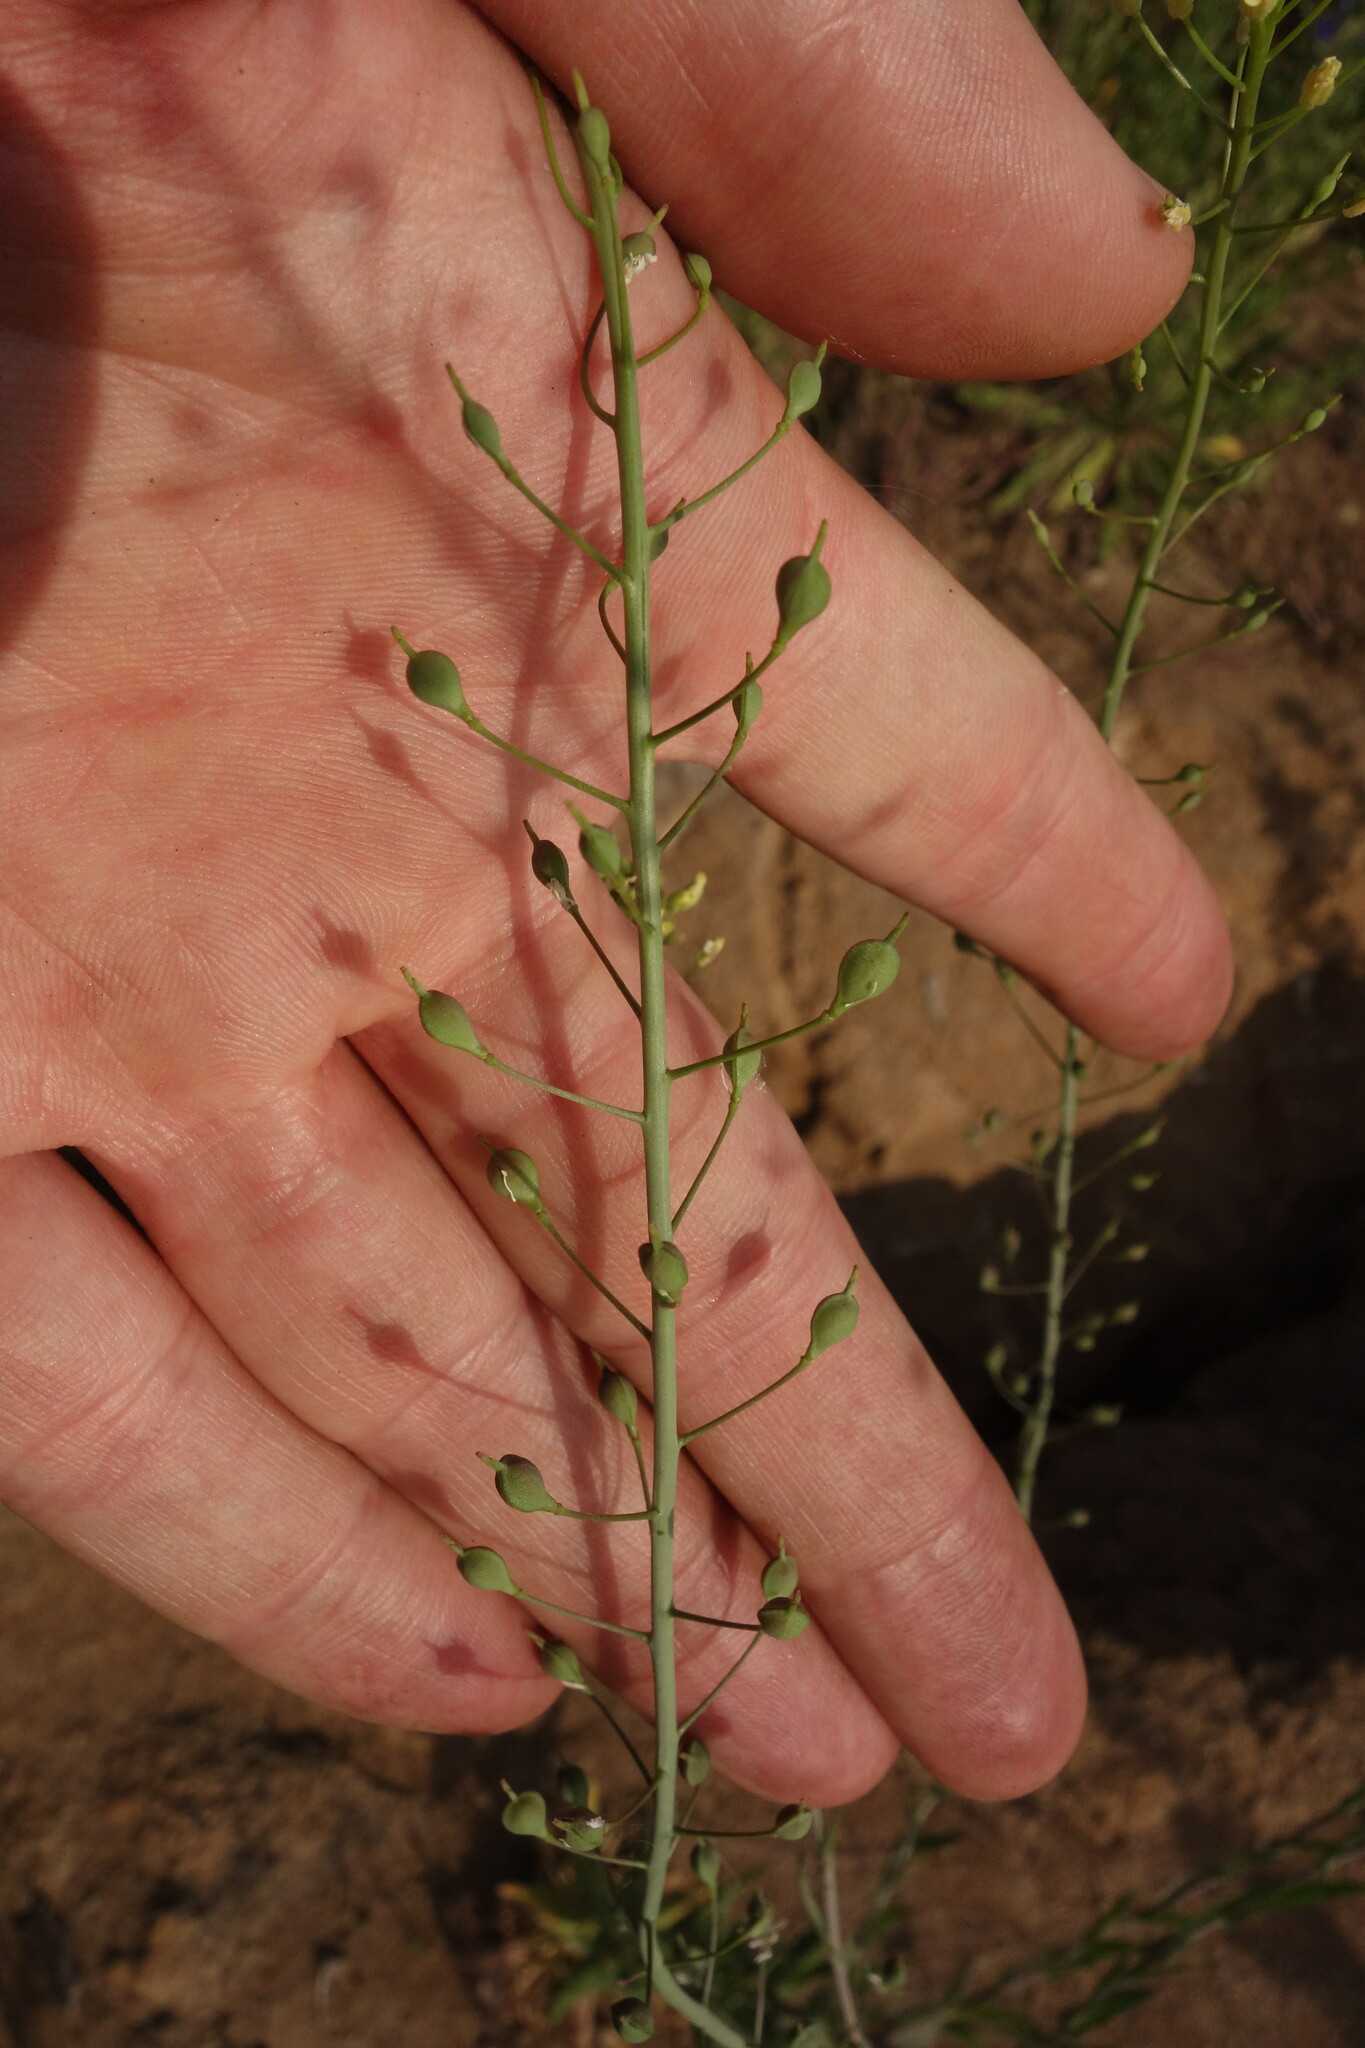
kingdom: Plantae
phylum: Tracheophyta
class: Magnoliopsida
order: Brassicales
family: Brassicaceae
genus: Camelina
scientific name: Camelina microcarpa
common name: Lesser gold-of-pleasure
